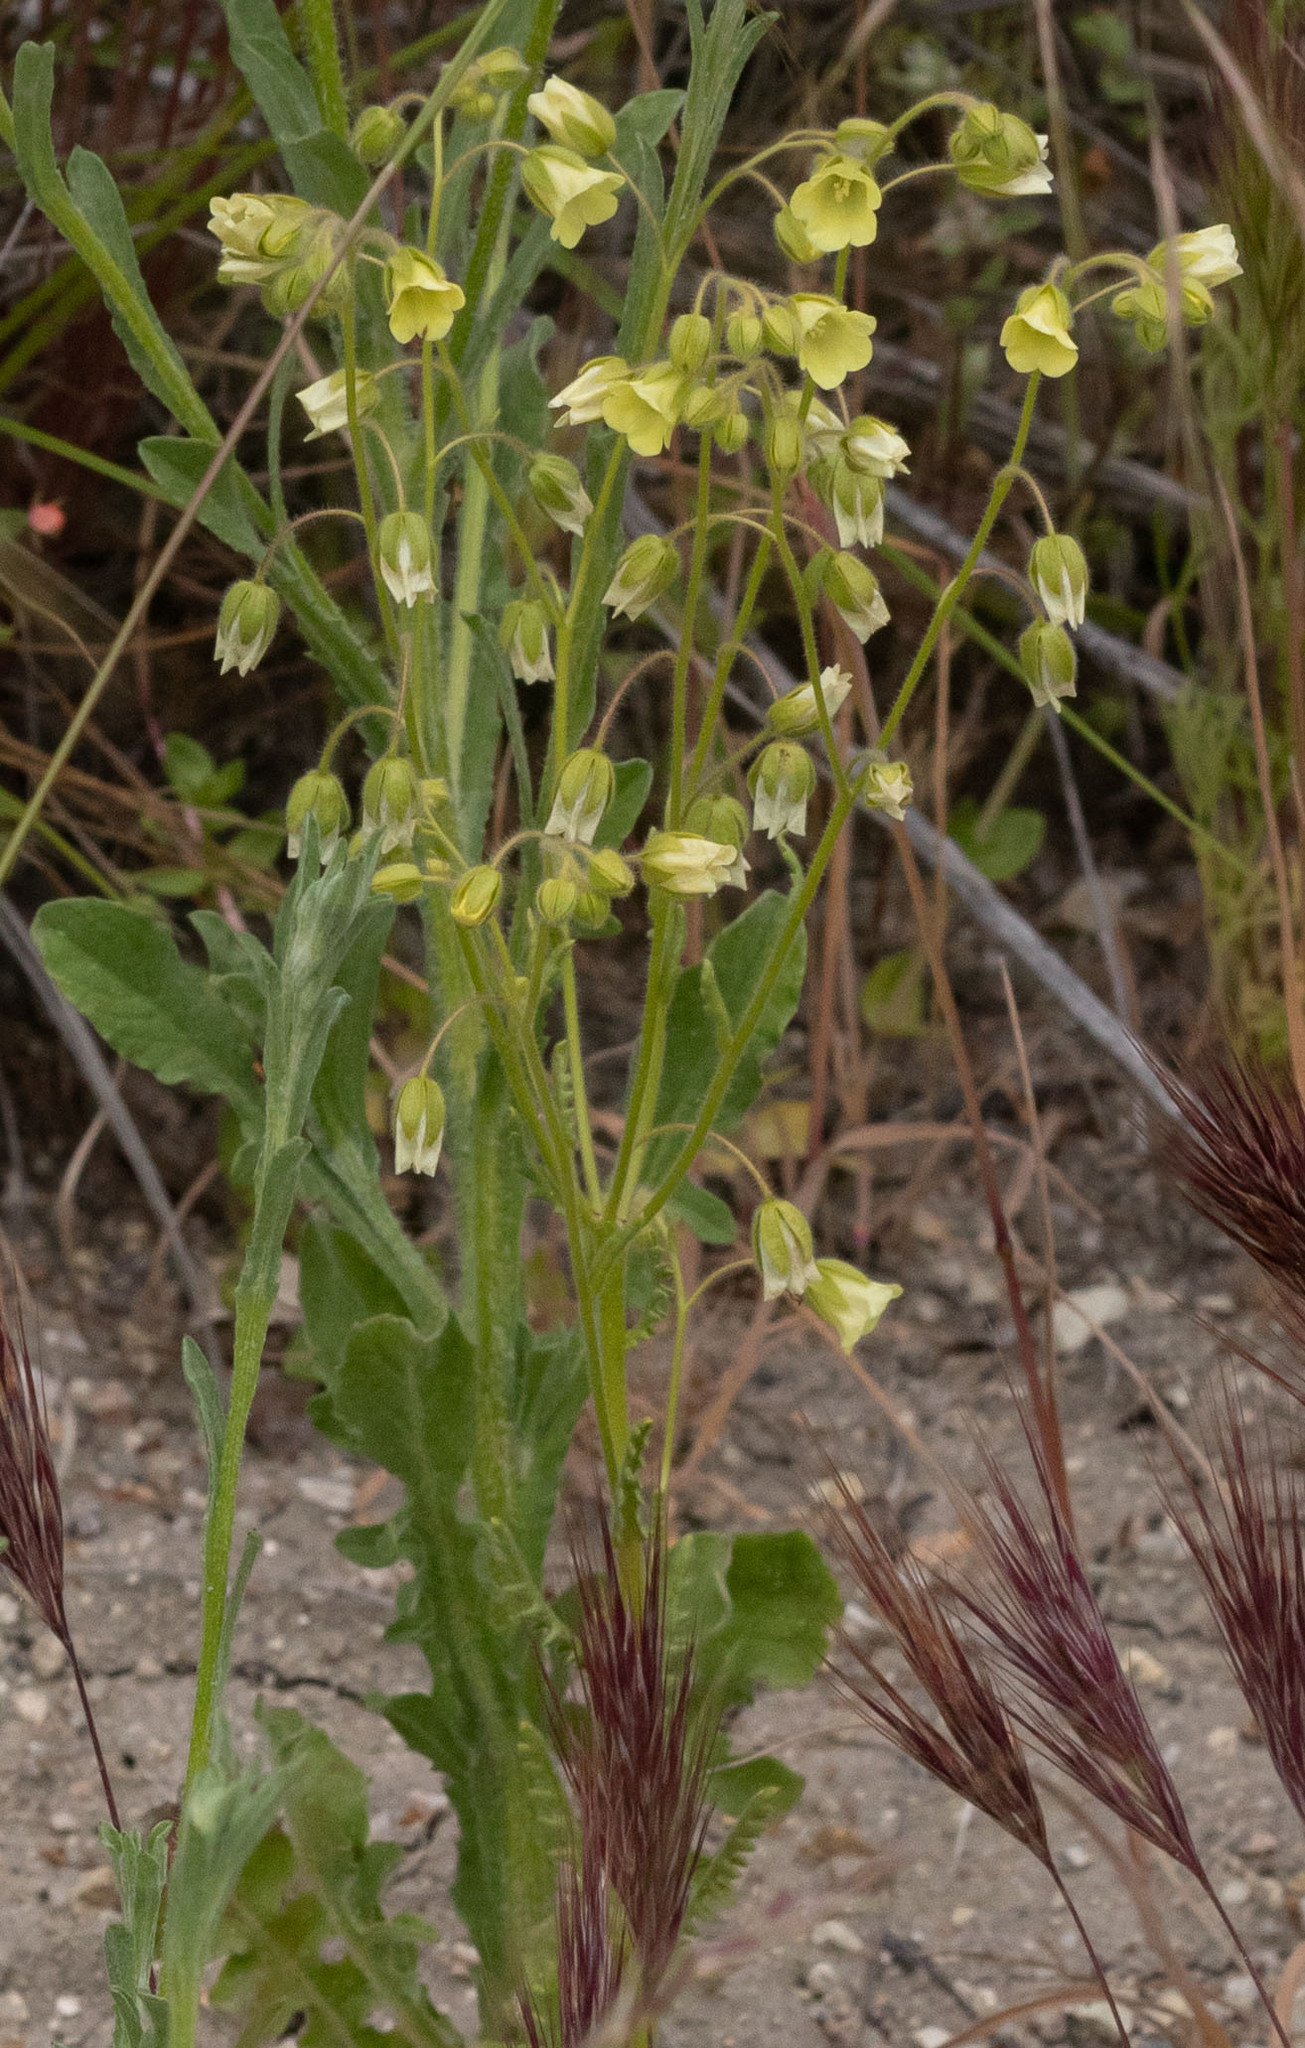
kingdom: Plantae
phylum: Tracheophyta
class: Magnoliopsida
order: Boraginales
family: Hydrophyllaceae
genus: Emmenanthe
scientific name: Emmenanthe penduliflora
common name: Whispering-bells
